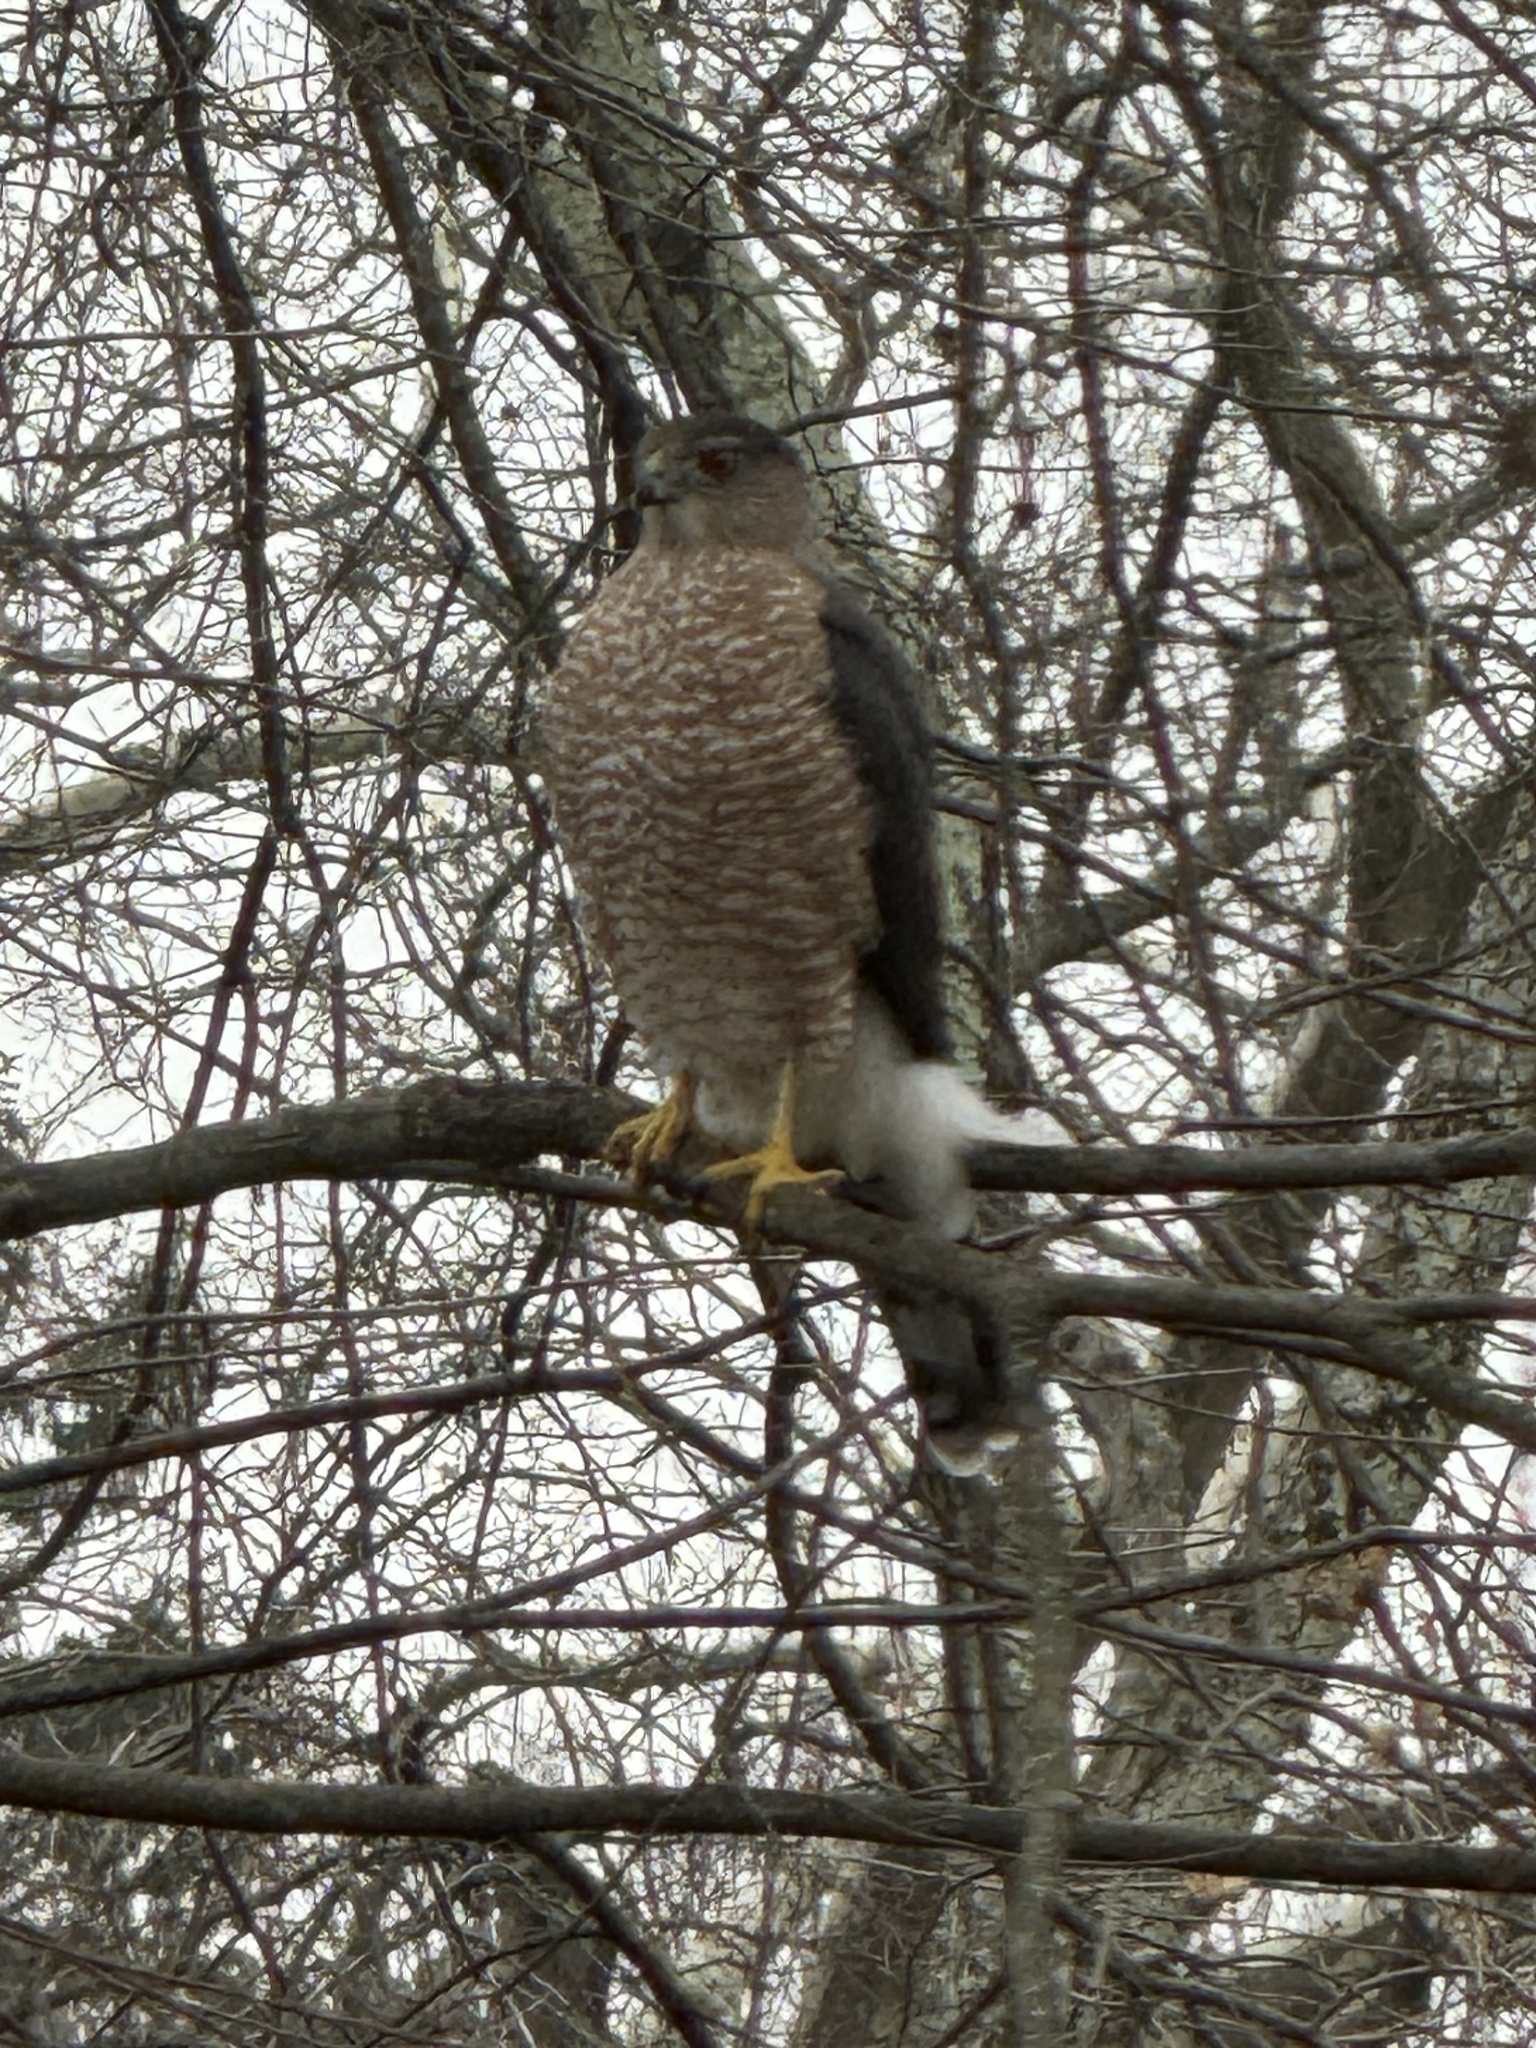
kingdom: Animalia
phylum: Chordata
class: Aves
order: Accipitriformes
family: Accipitridae
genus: Accipiter
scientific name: Accipiter cooperii
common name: Cooper's hawk
